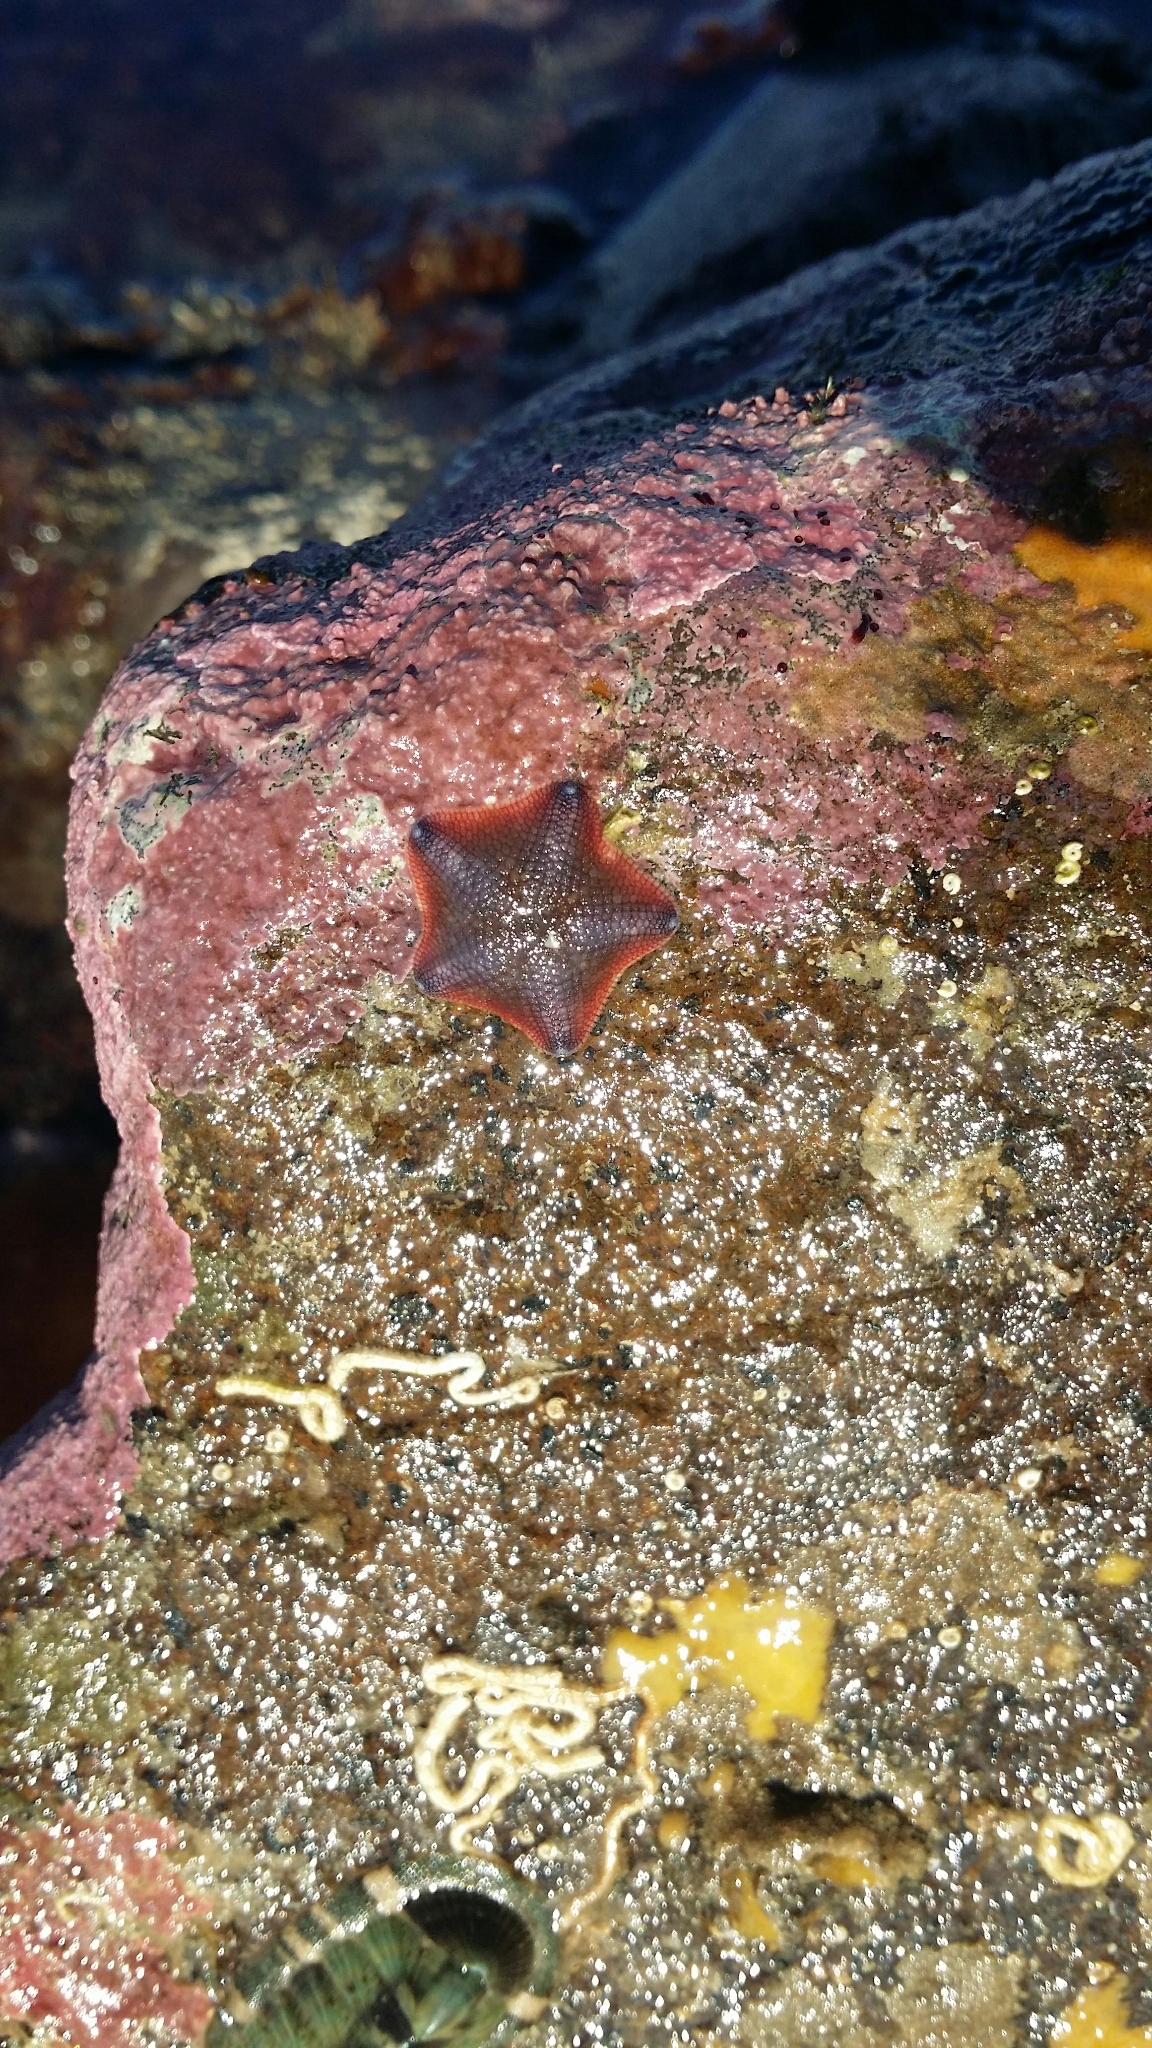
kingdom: Animalia
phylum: Echinodermata
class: Asteroidea
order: Valvatida
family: Asterinidae
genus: Patiriella
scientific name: Patiriella regularis
